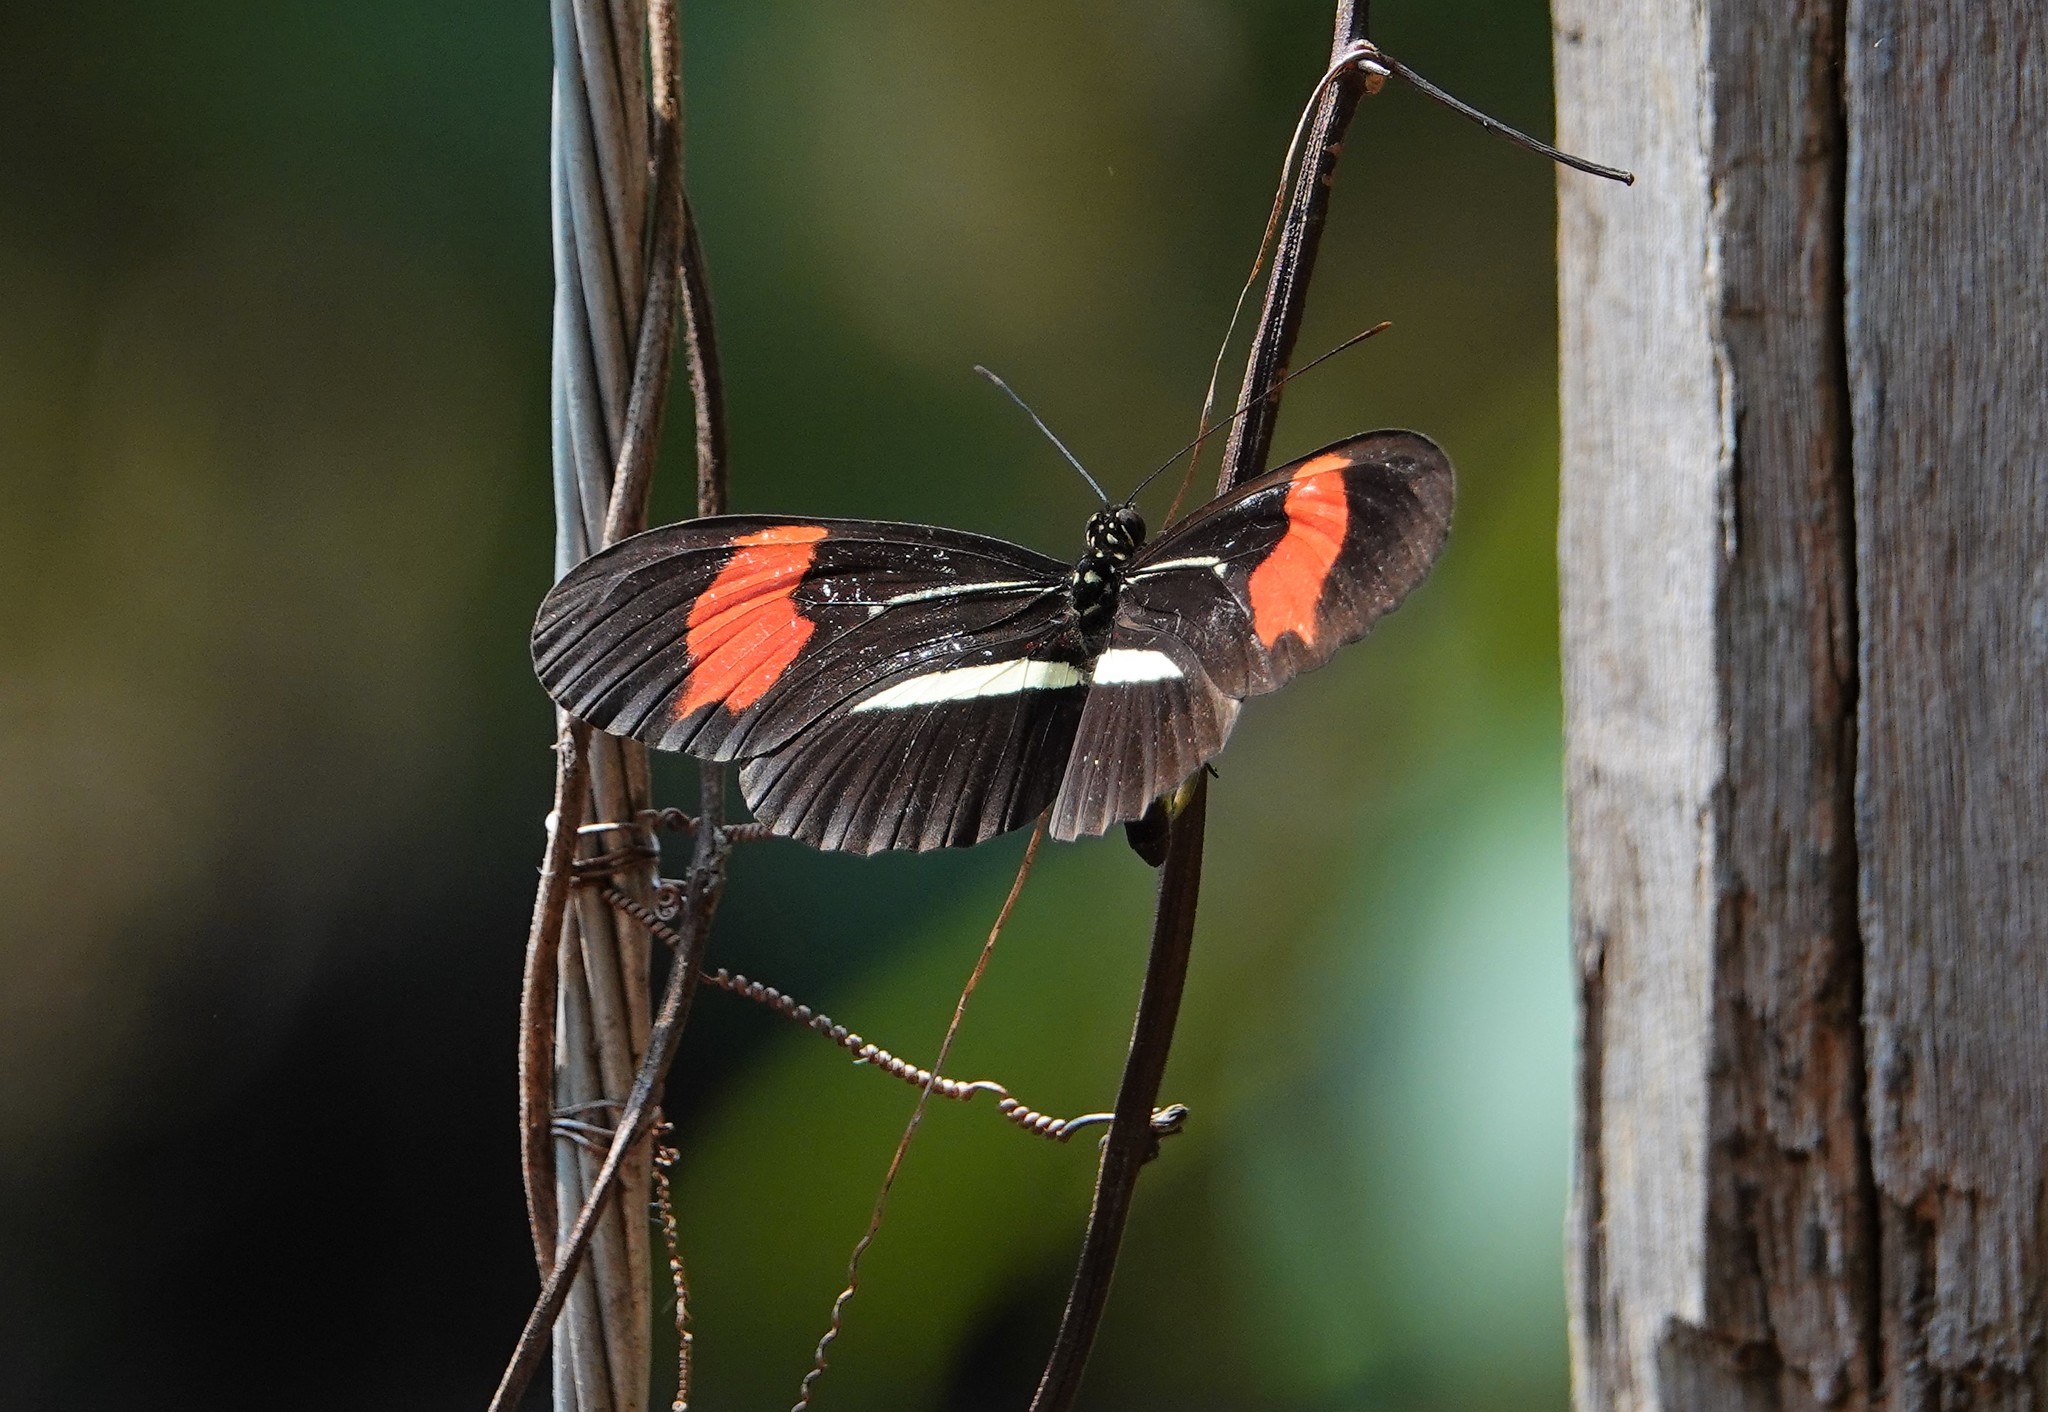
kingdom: Animalia
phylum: Arthropoda
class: Insecta
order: Lepidoptera
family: Nymphalidae
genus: Heliconius
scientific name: Heliconius erato
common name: Common patch longwing
